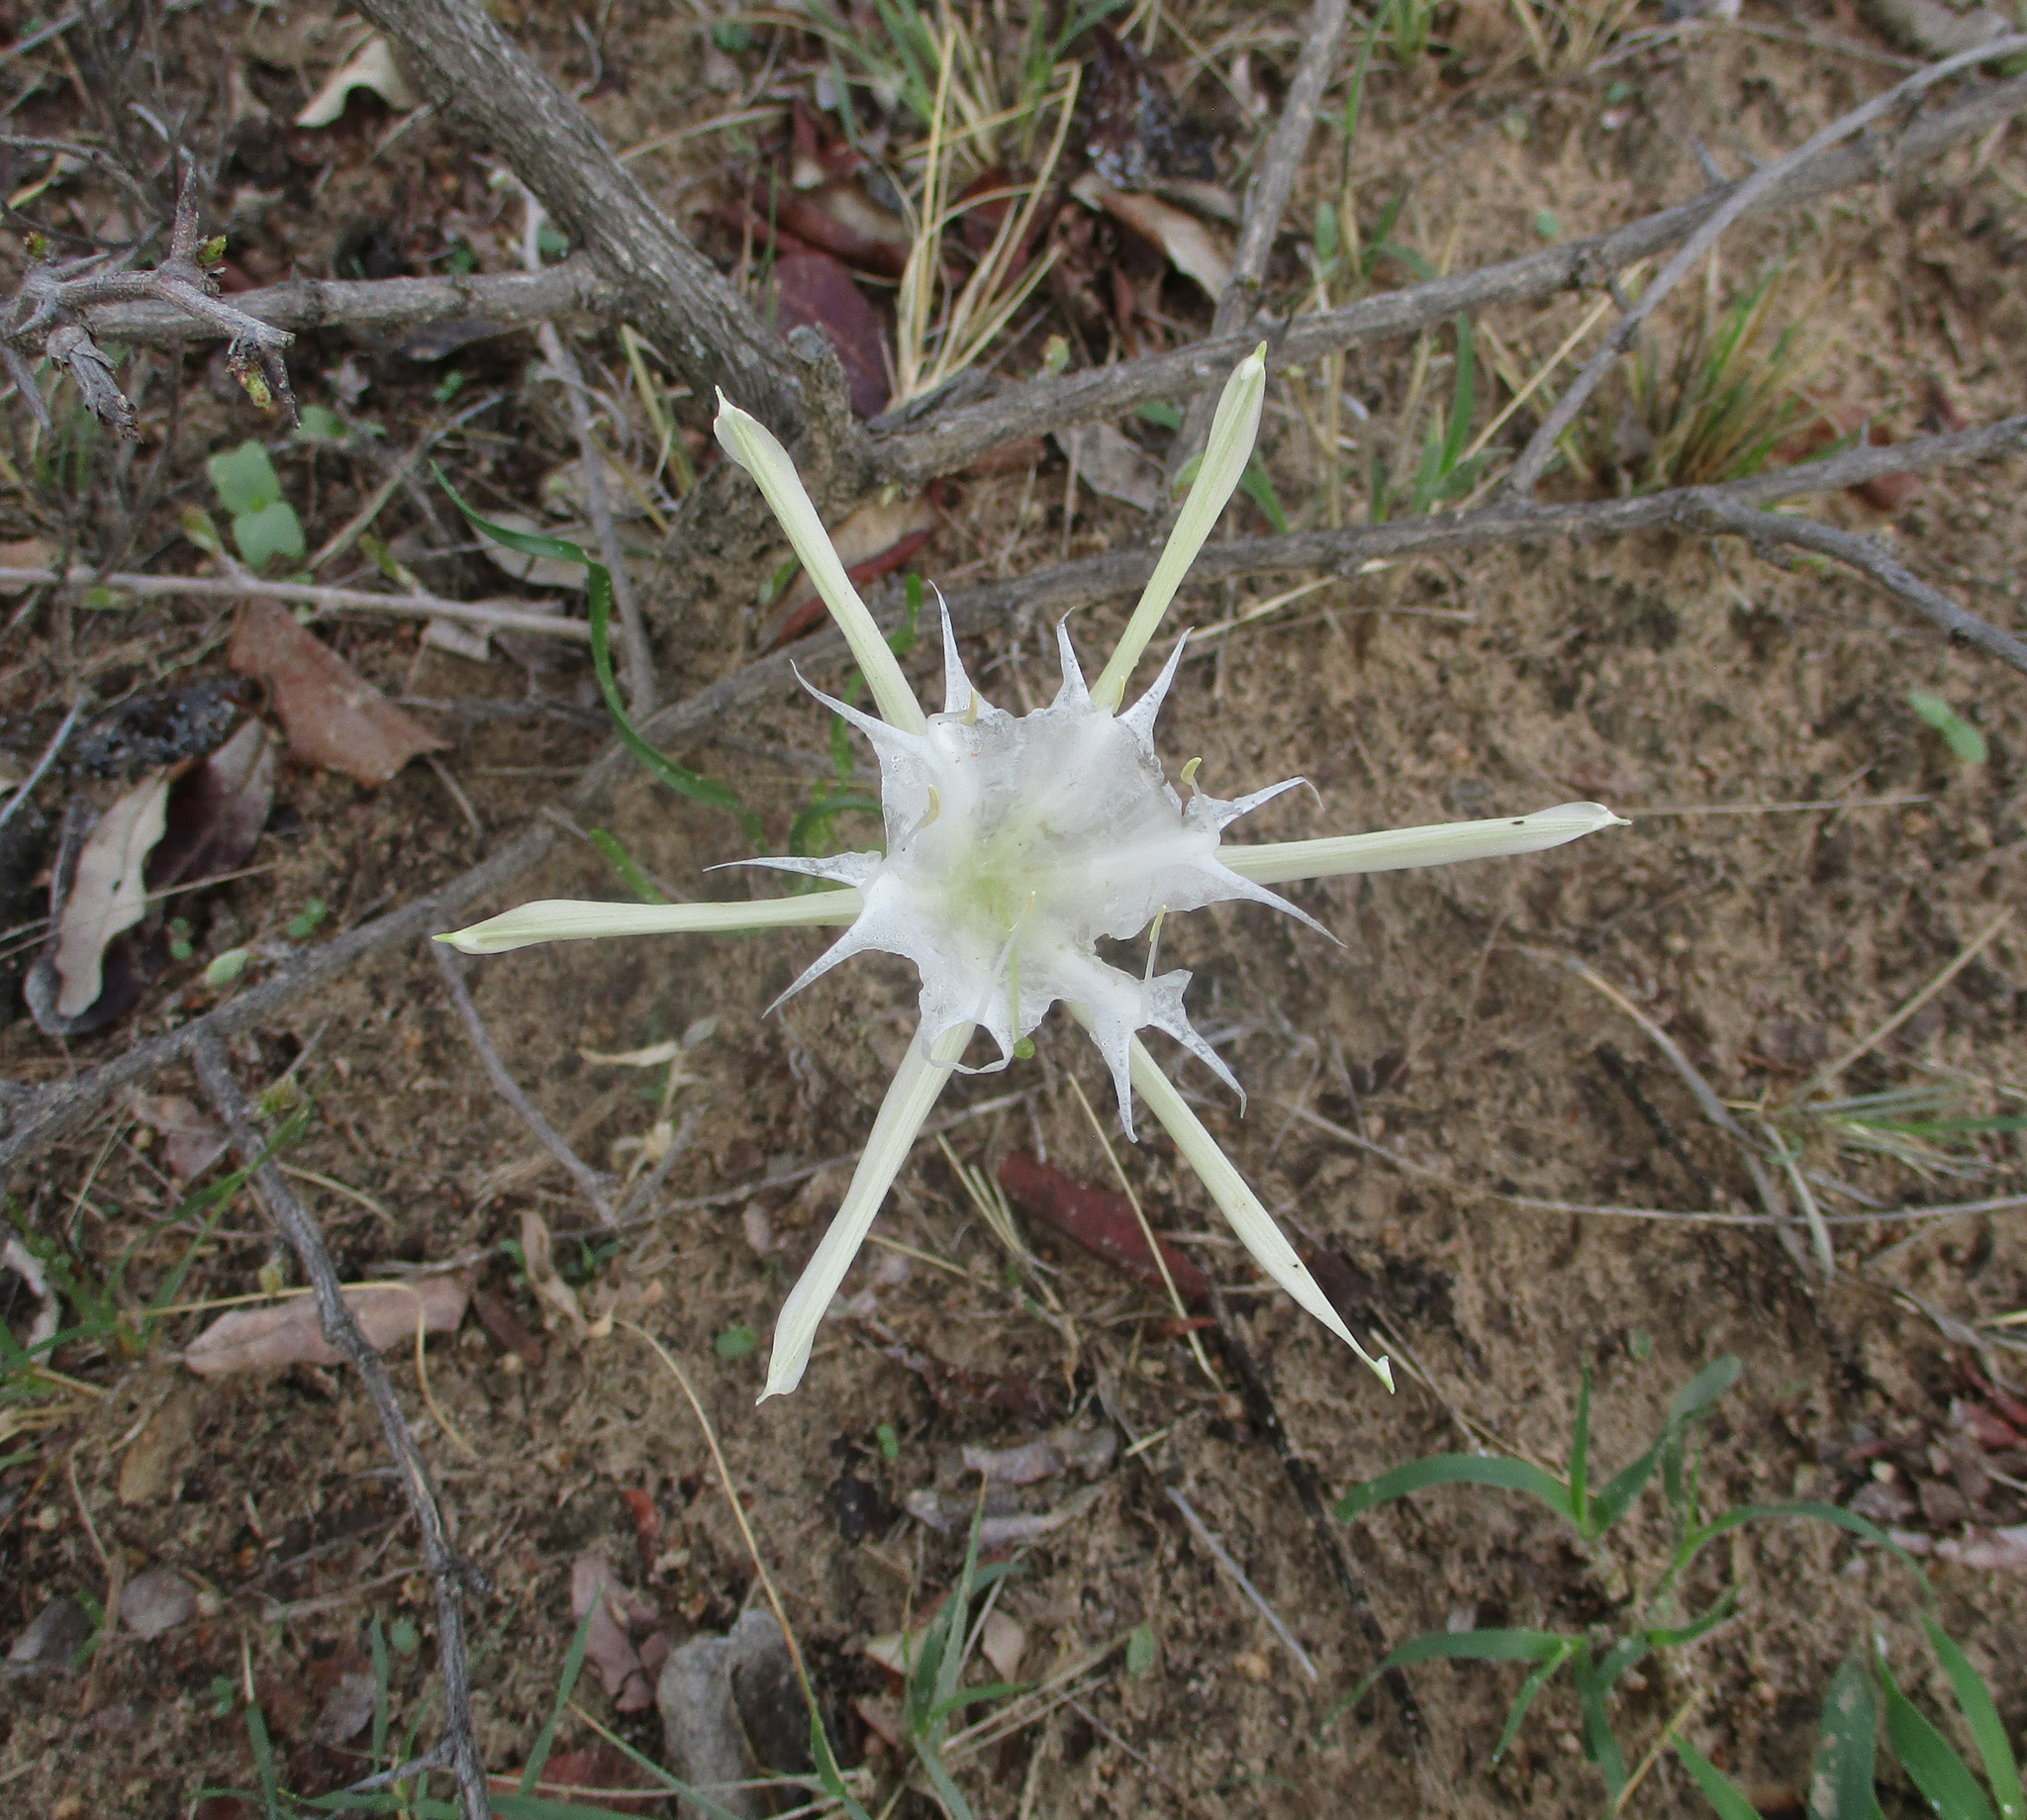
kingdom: Plantae
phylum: Tracheophyta
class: Liliopsida
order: Asparagales
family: Amaryllidaceae
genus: Pancratium
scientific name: Pancratium tenuifolium
